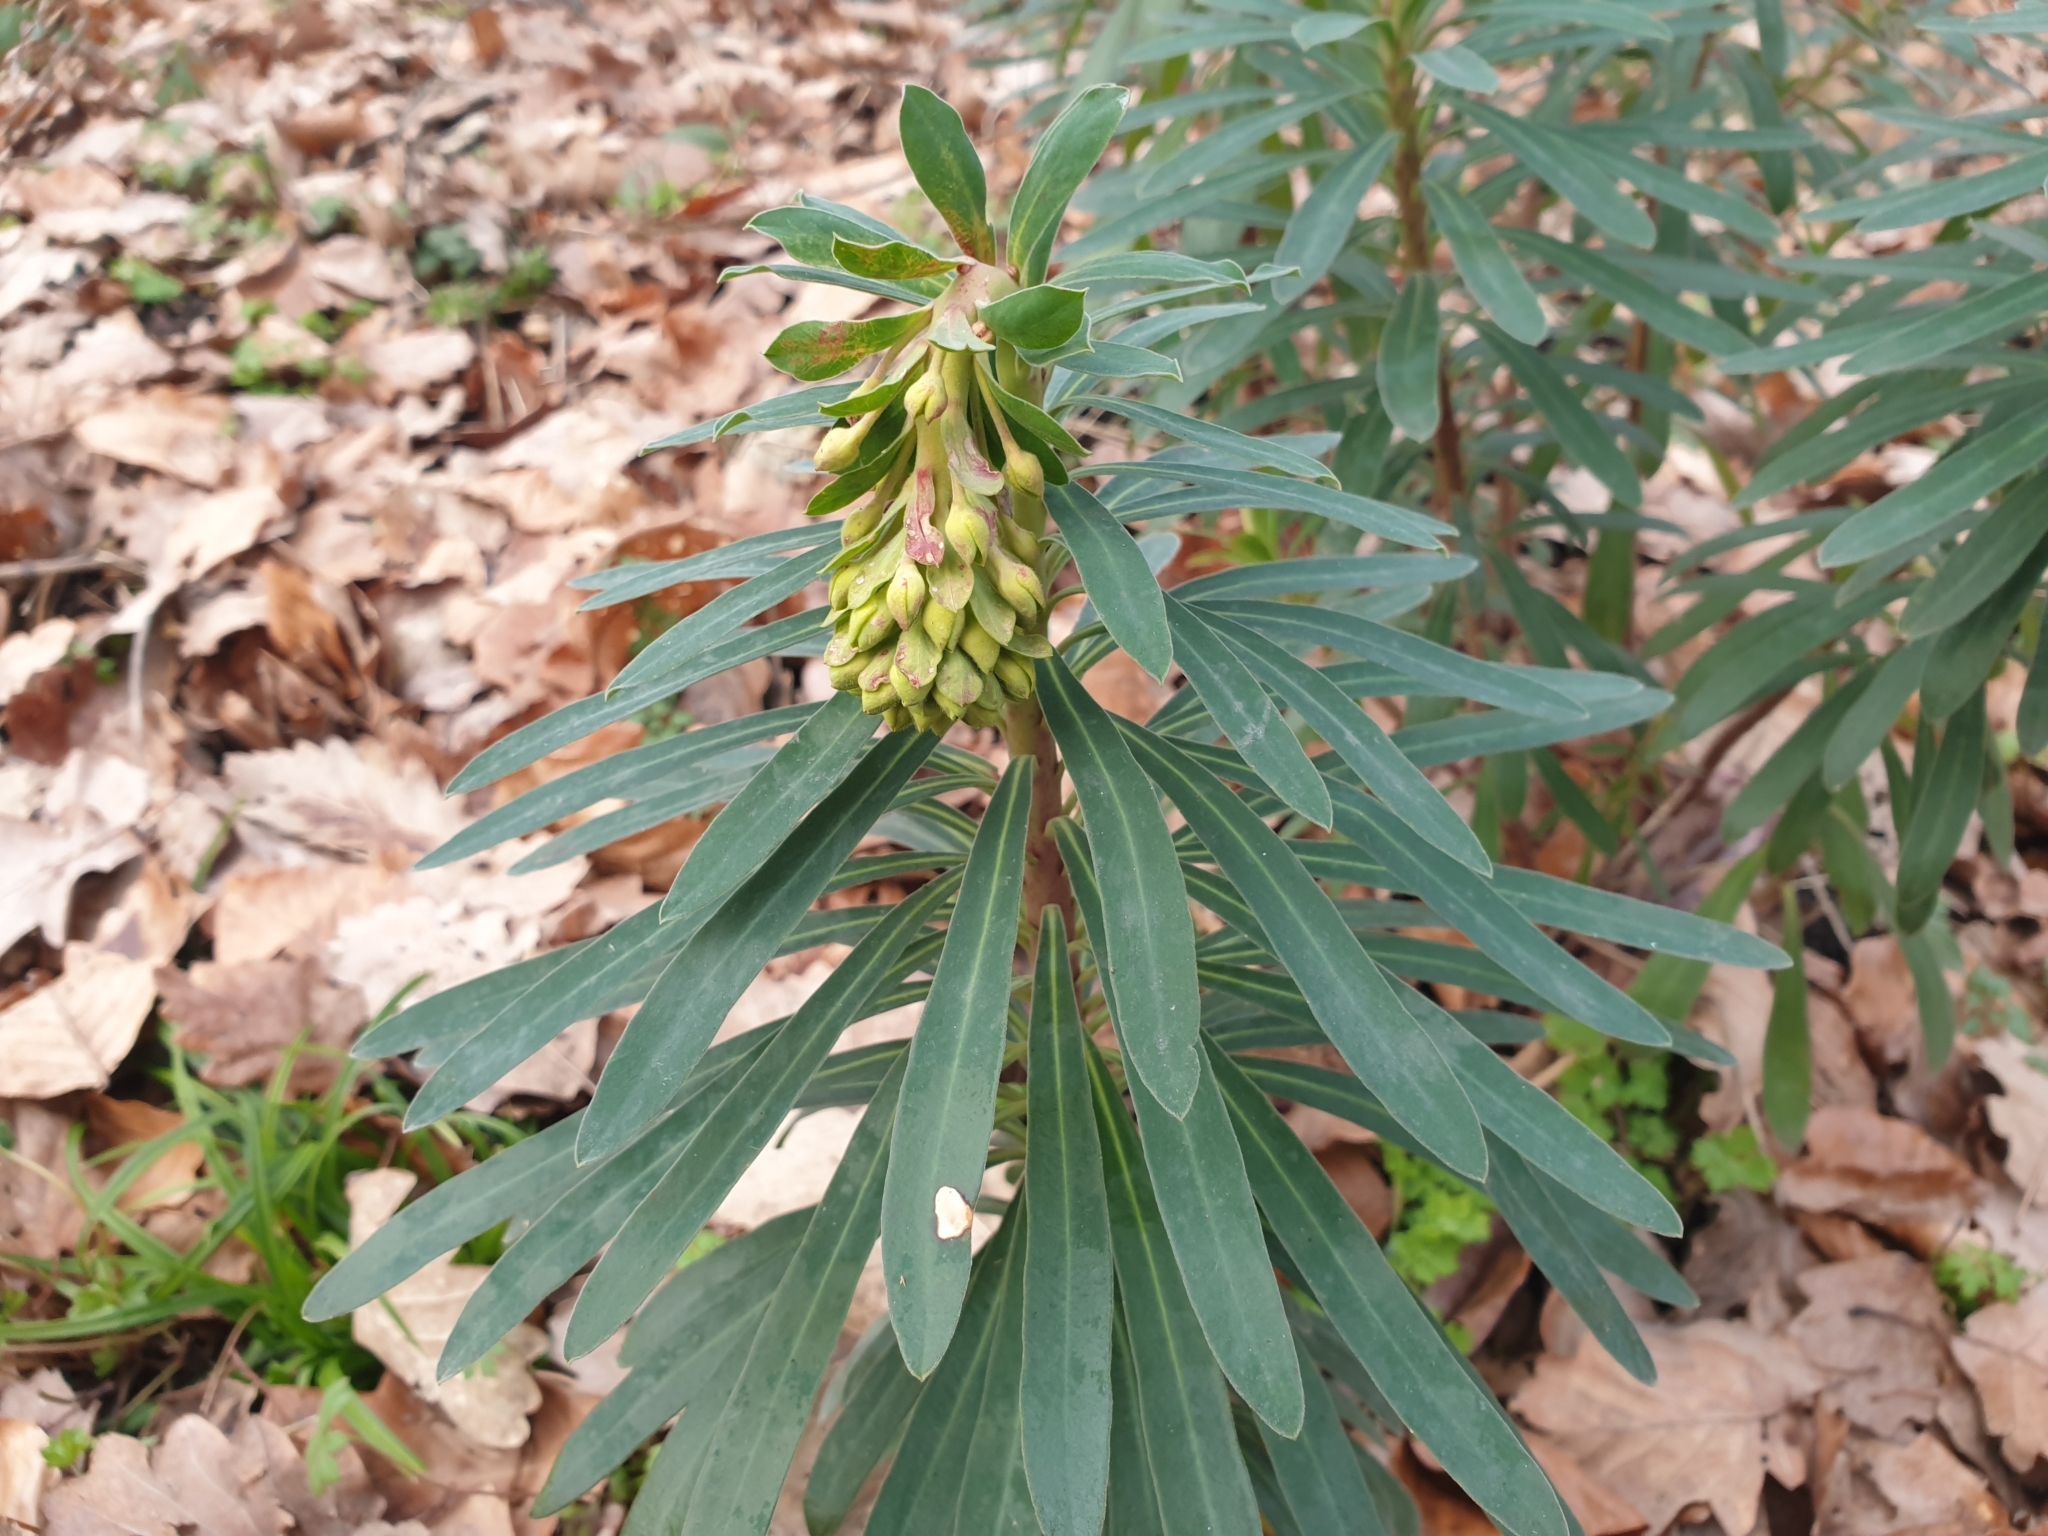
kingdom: Plantae
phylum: Tracheophyta
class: Magnoliopsida
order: Malpighiales
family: Euphorbiaceae
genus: Euphorbia
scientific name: Euphorbia amygdaloides
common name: Wood spurge
